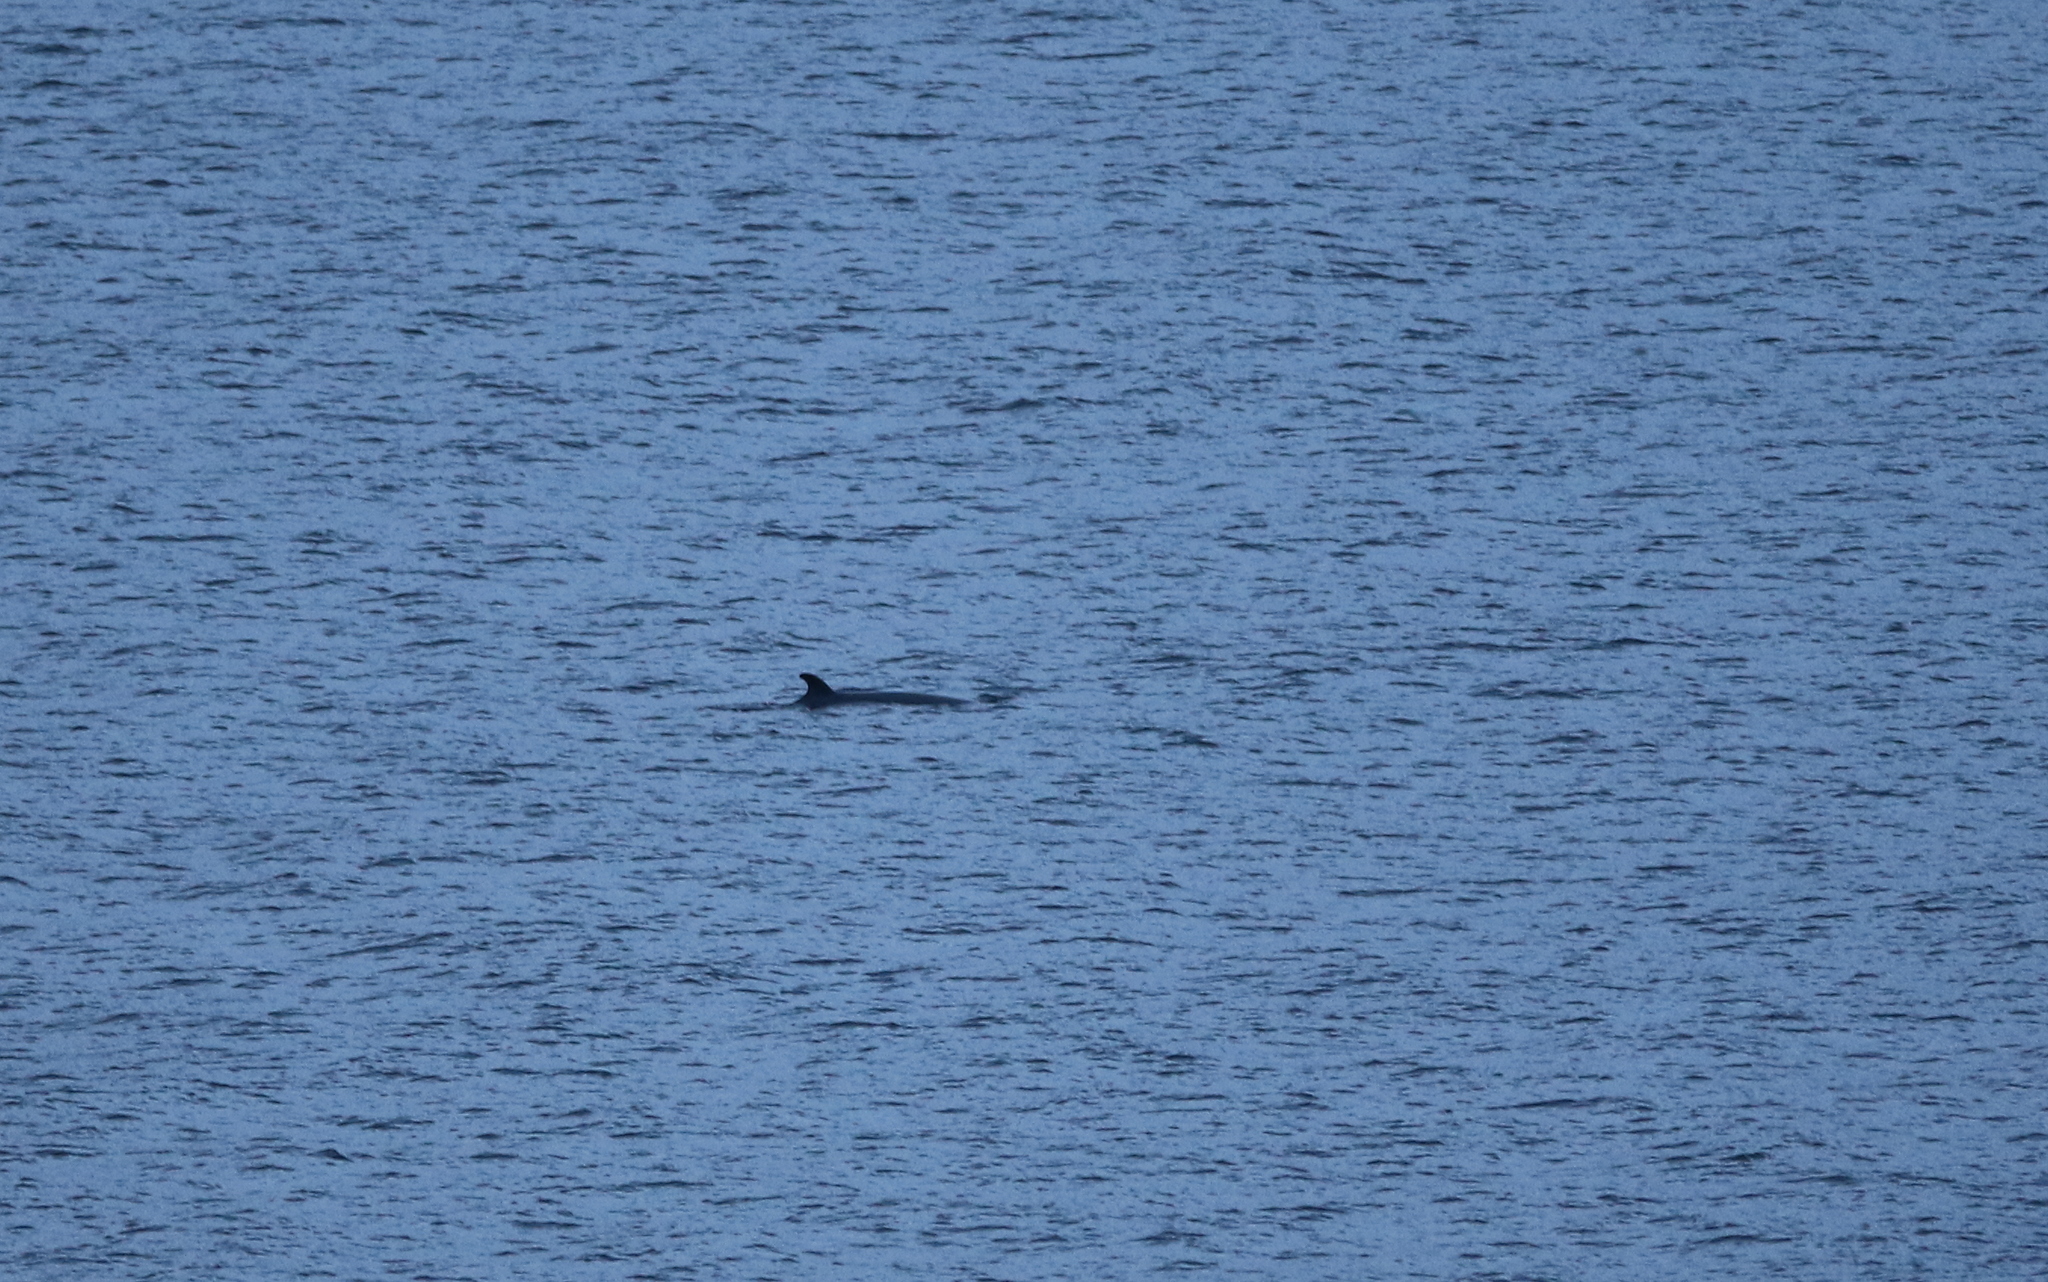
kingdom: Animalia
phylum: Chordata
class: Mammalia
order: Cetacea
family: Balaenopteridae
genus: Balaenoptera
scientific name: Balaenoptera acutorostrata
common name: Common minke whale
